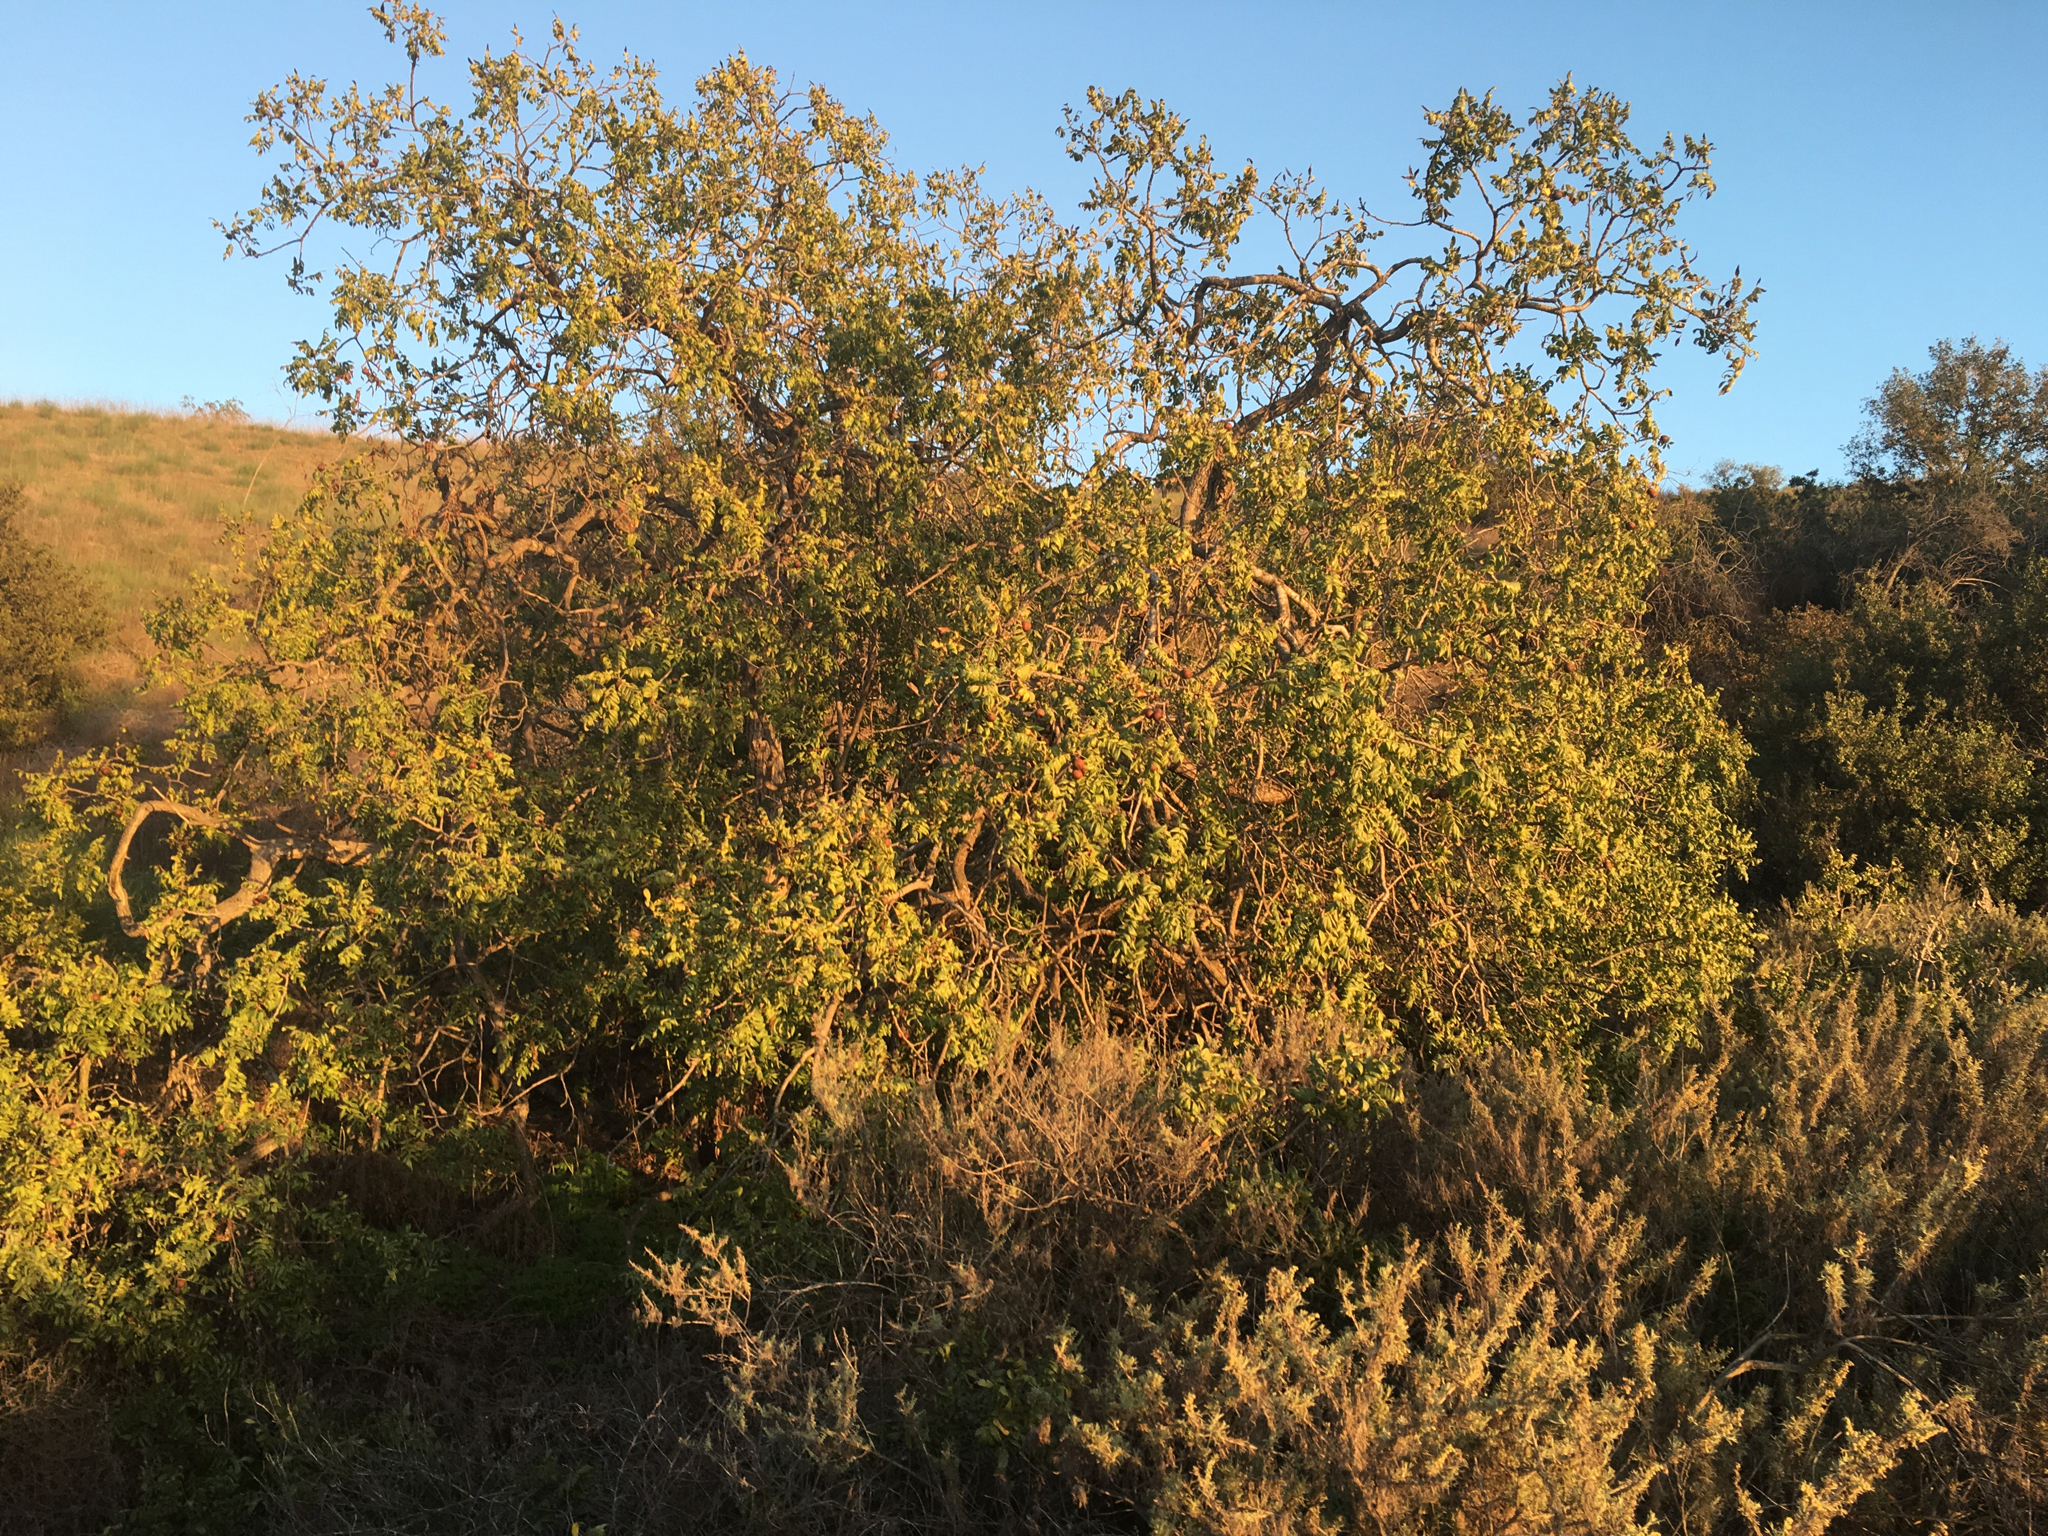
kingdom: Plantae
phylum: Tracheophyta
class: Magnoliopsida
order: Fagales
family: Juglandaceae
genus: Juglans
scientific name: Juglans californica
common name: Southern california black walnut
